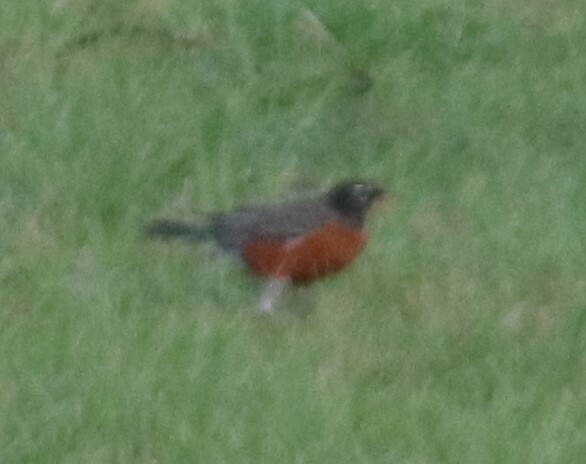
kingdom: Animalia
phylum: Chordata
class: Aves
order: Passeriformes
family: Turdidae
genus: Turdus
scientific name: Turdus migratorius
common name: American robin
